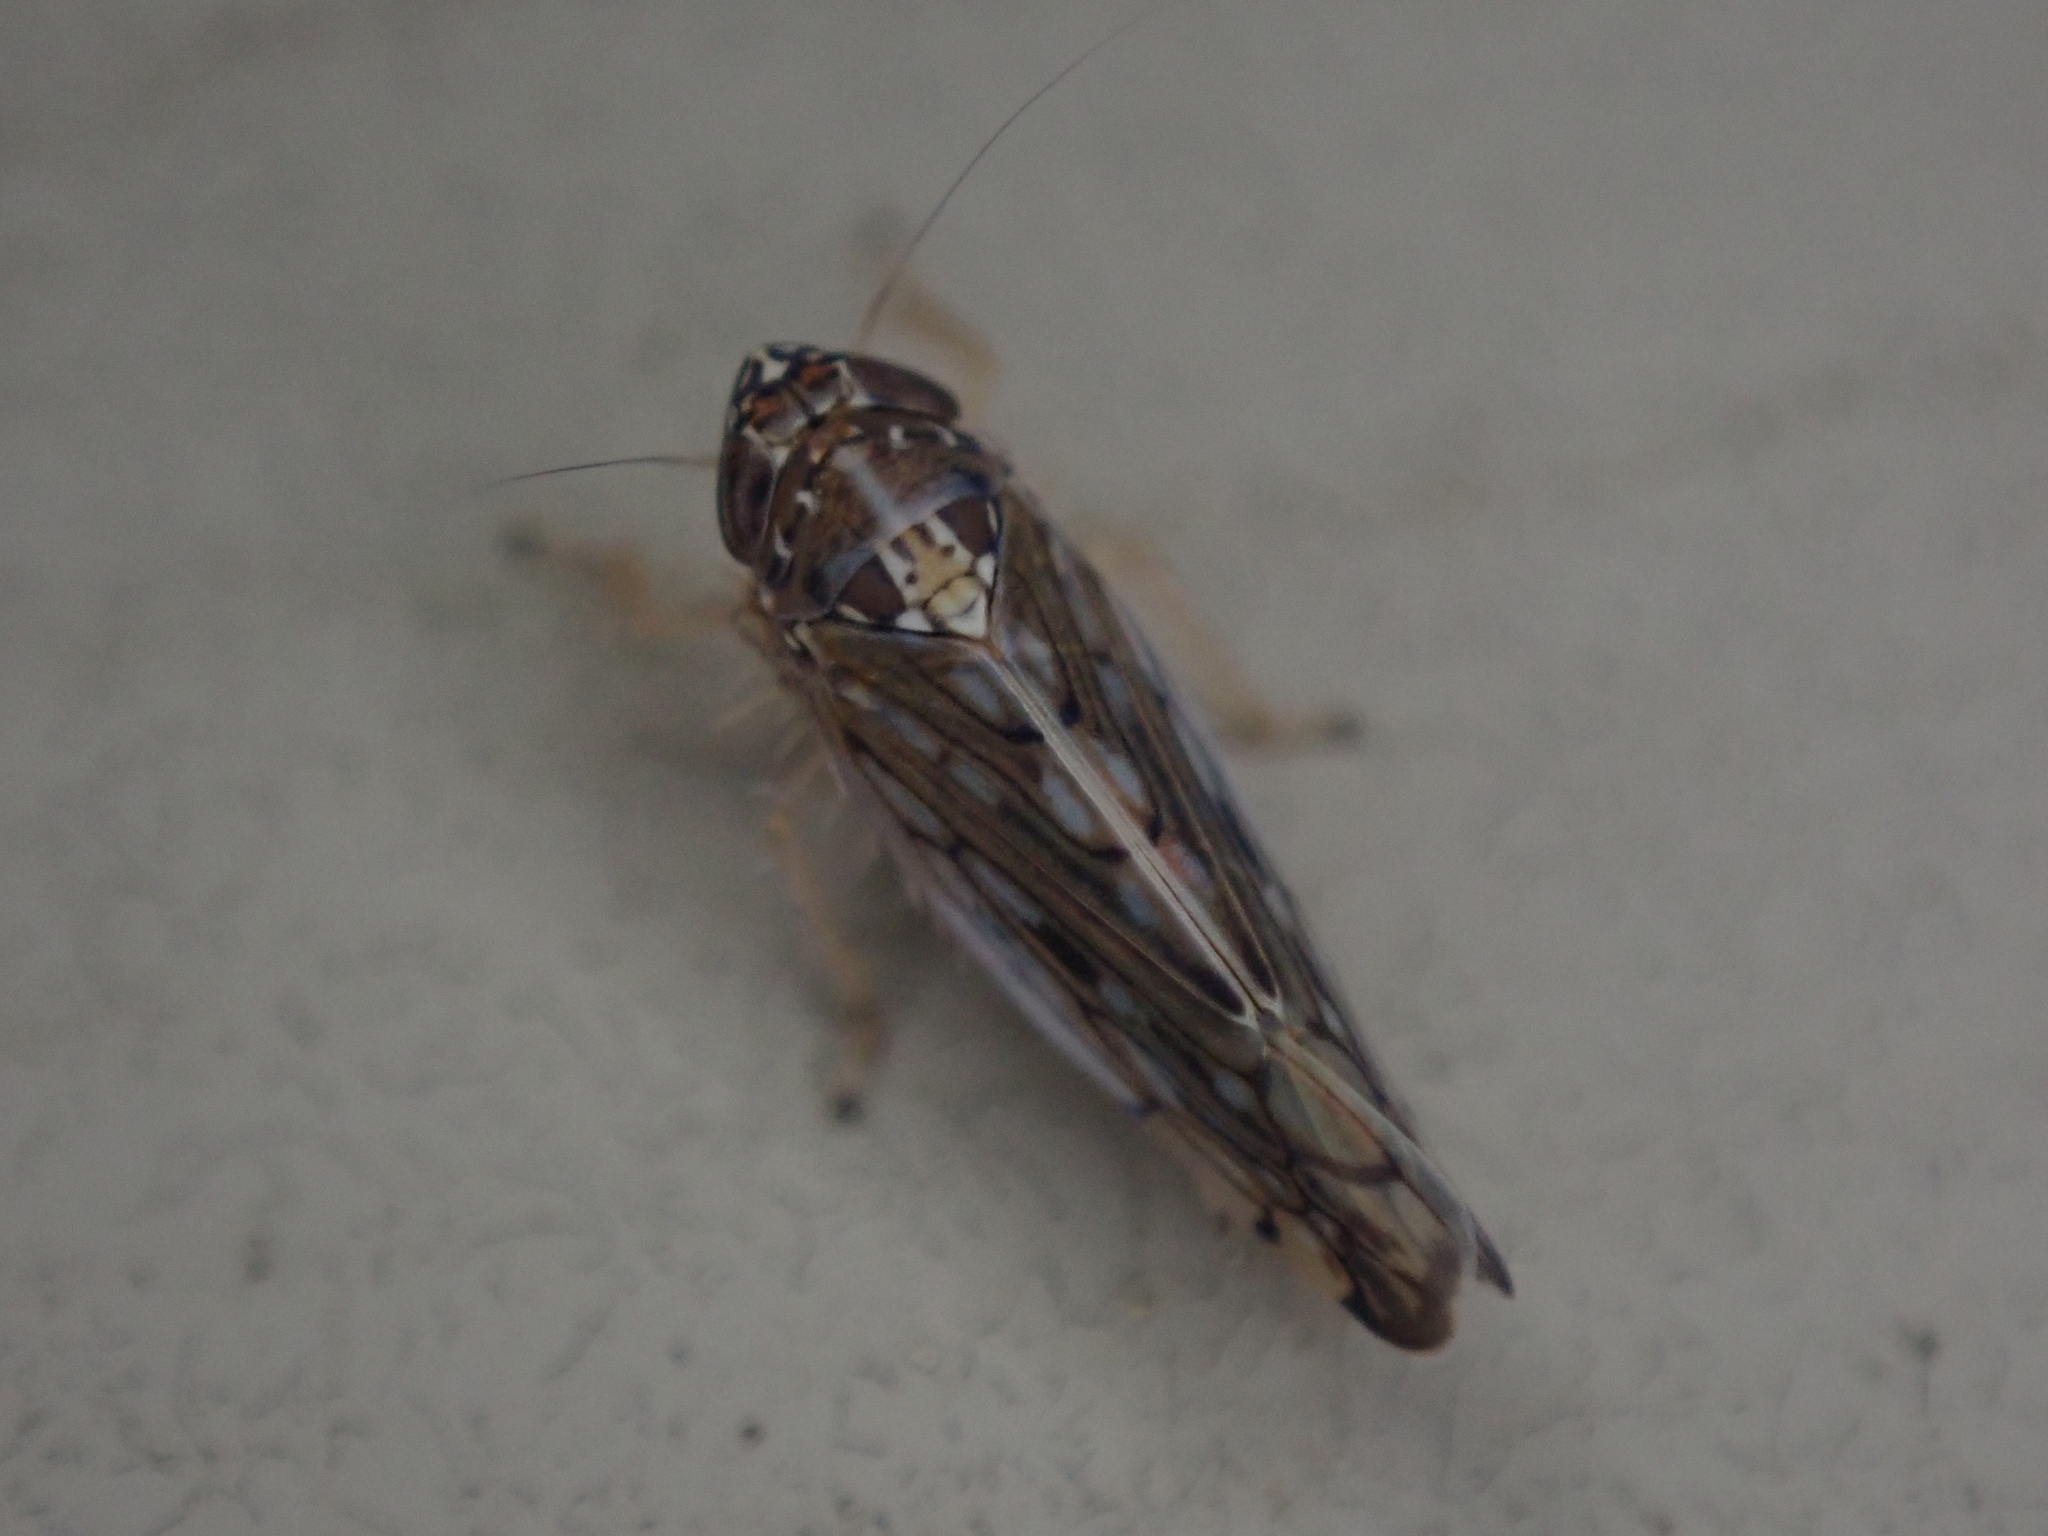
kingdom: Animalia
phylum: Arthropoda
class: Insecta
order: Hemiptera
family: Cicadellidae
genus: Osbornellus
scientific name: Osbornellus clarus
